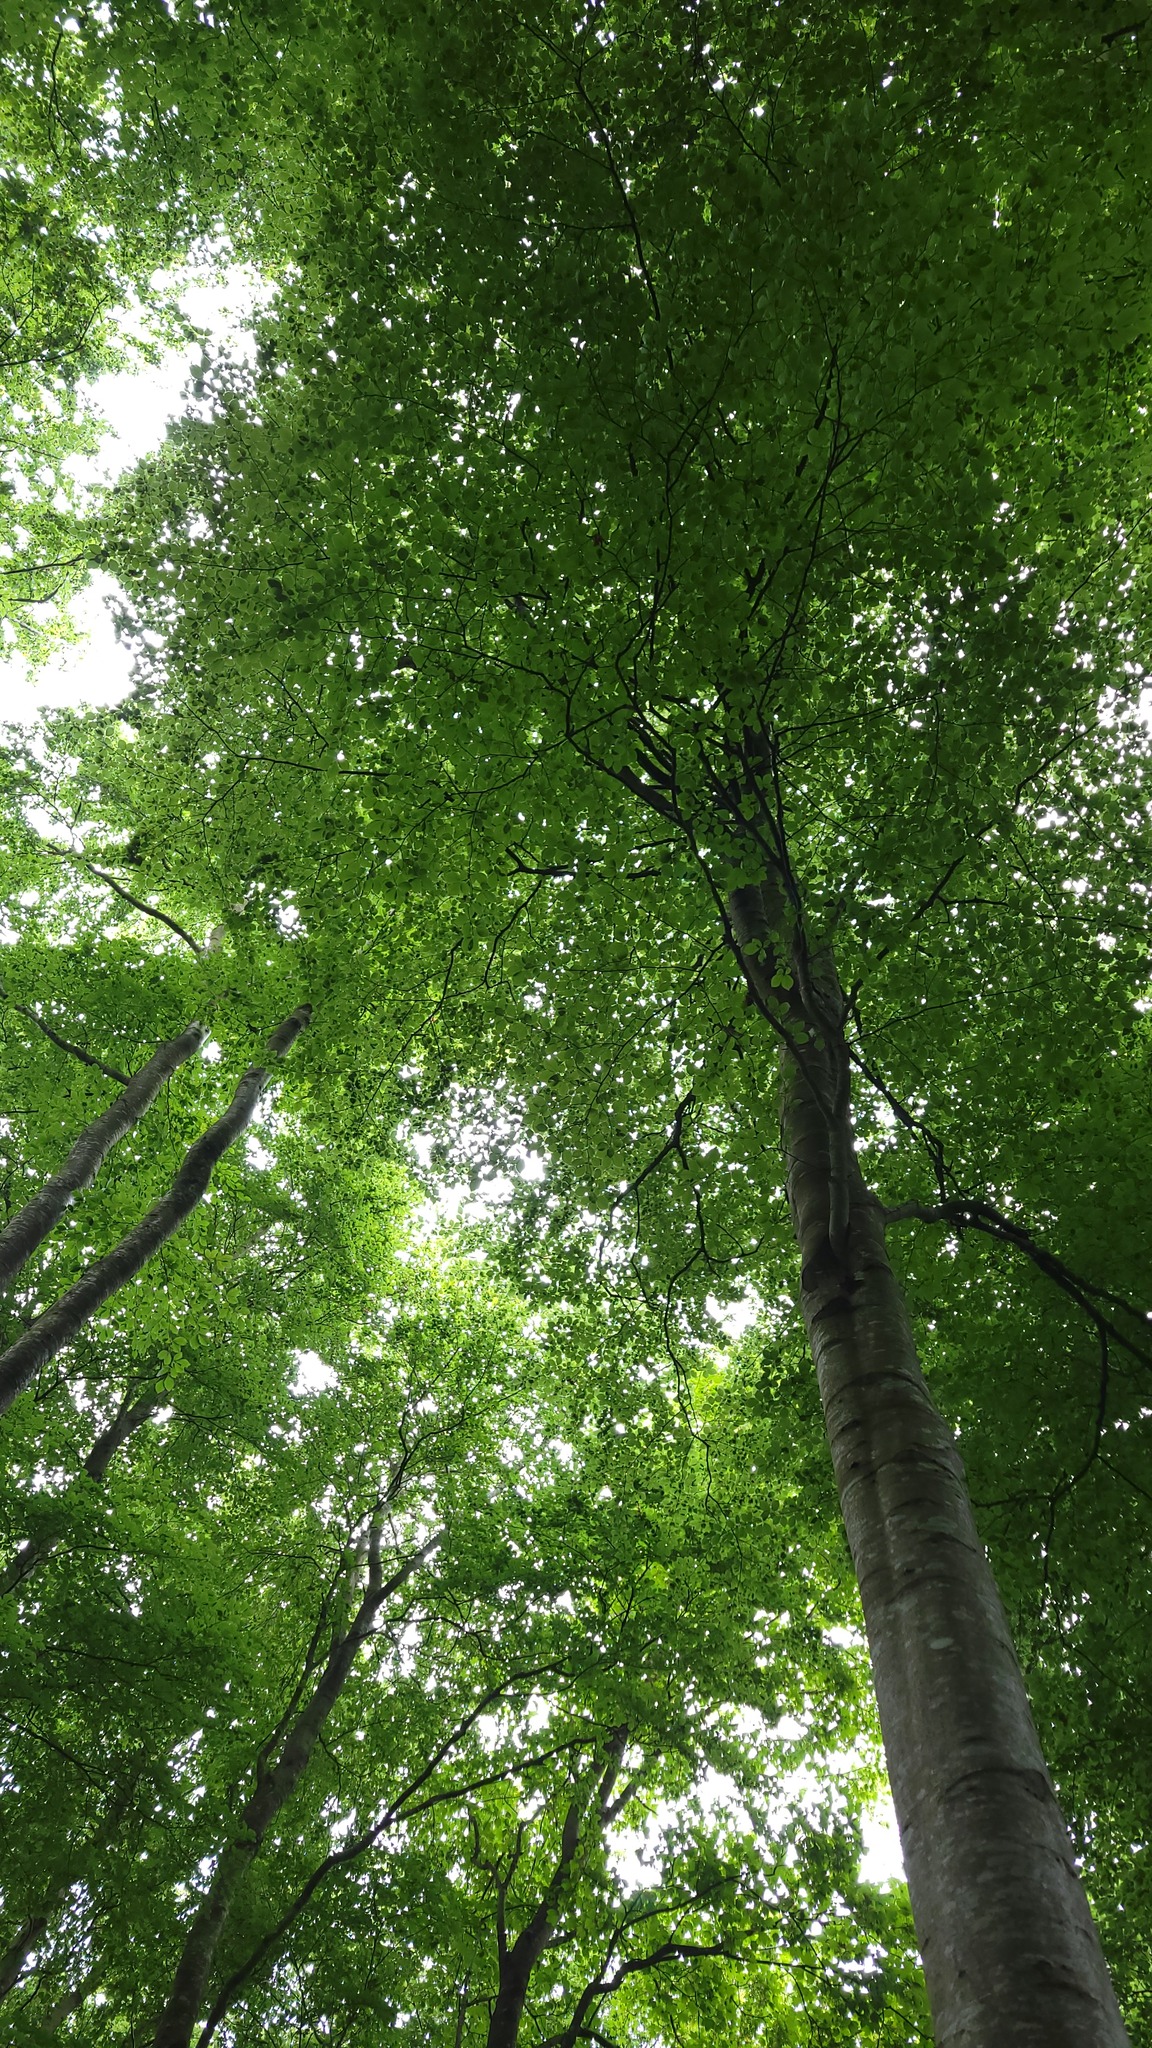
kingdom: Plantae
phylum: Tracheophyta
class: Magnoliopsida
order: Fagales
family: Fagaceae
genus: Fagus
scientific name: Fagus sylvatica
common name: Beech
